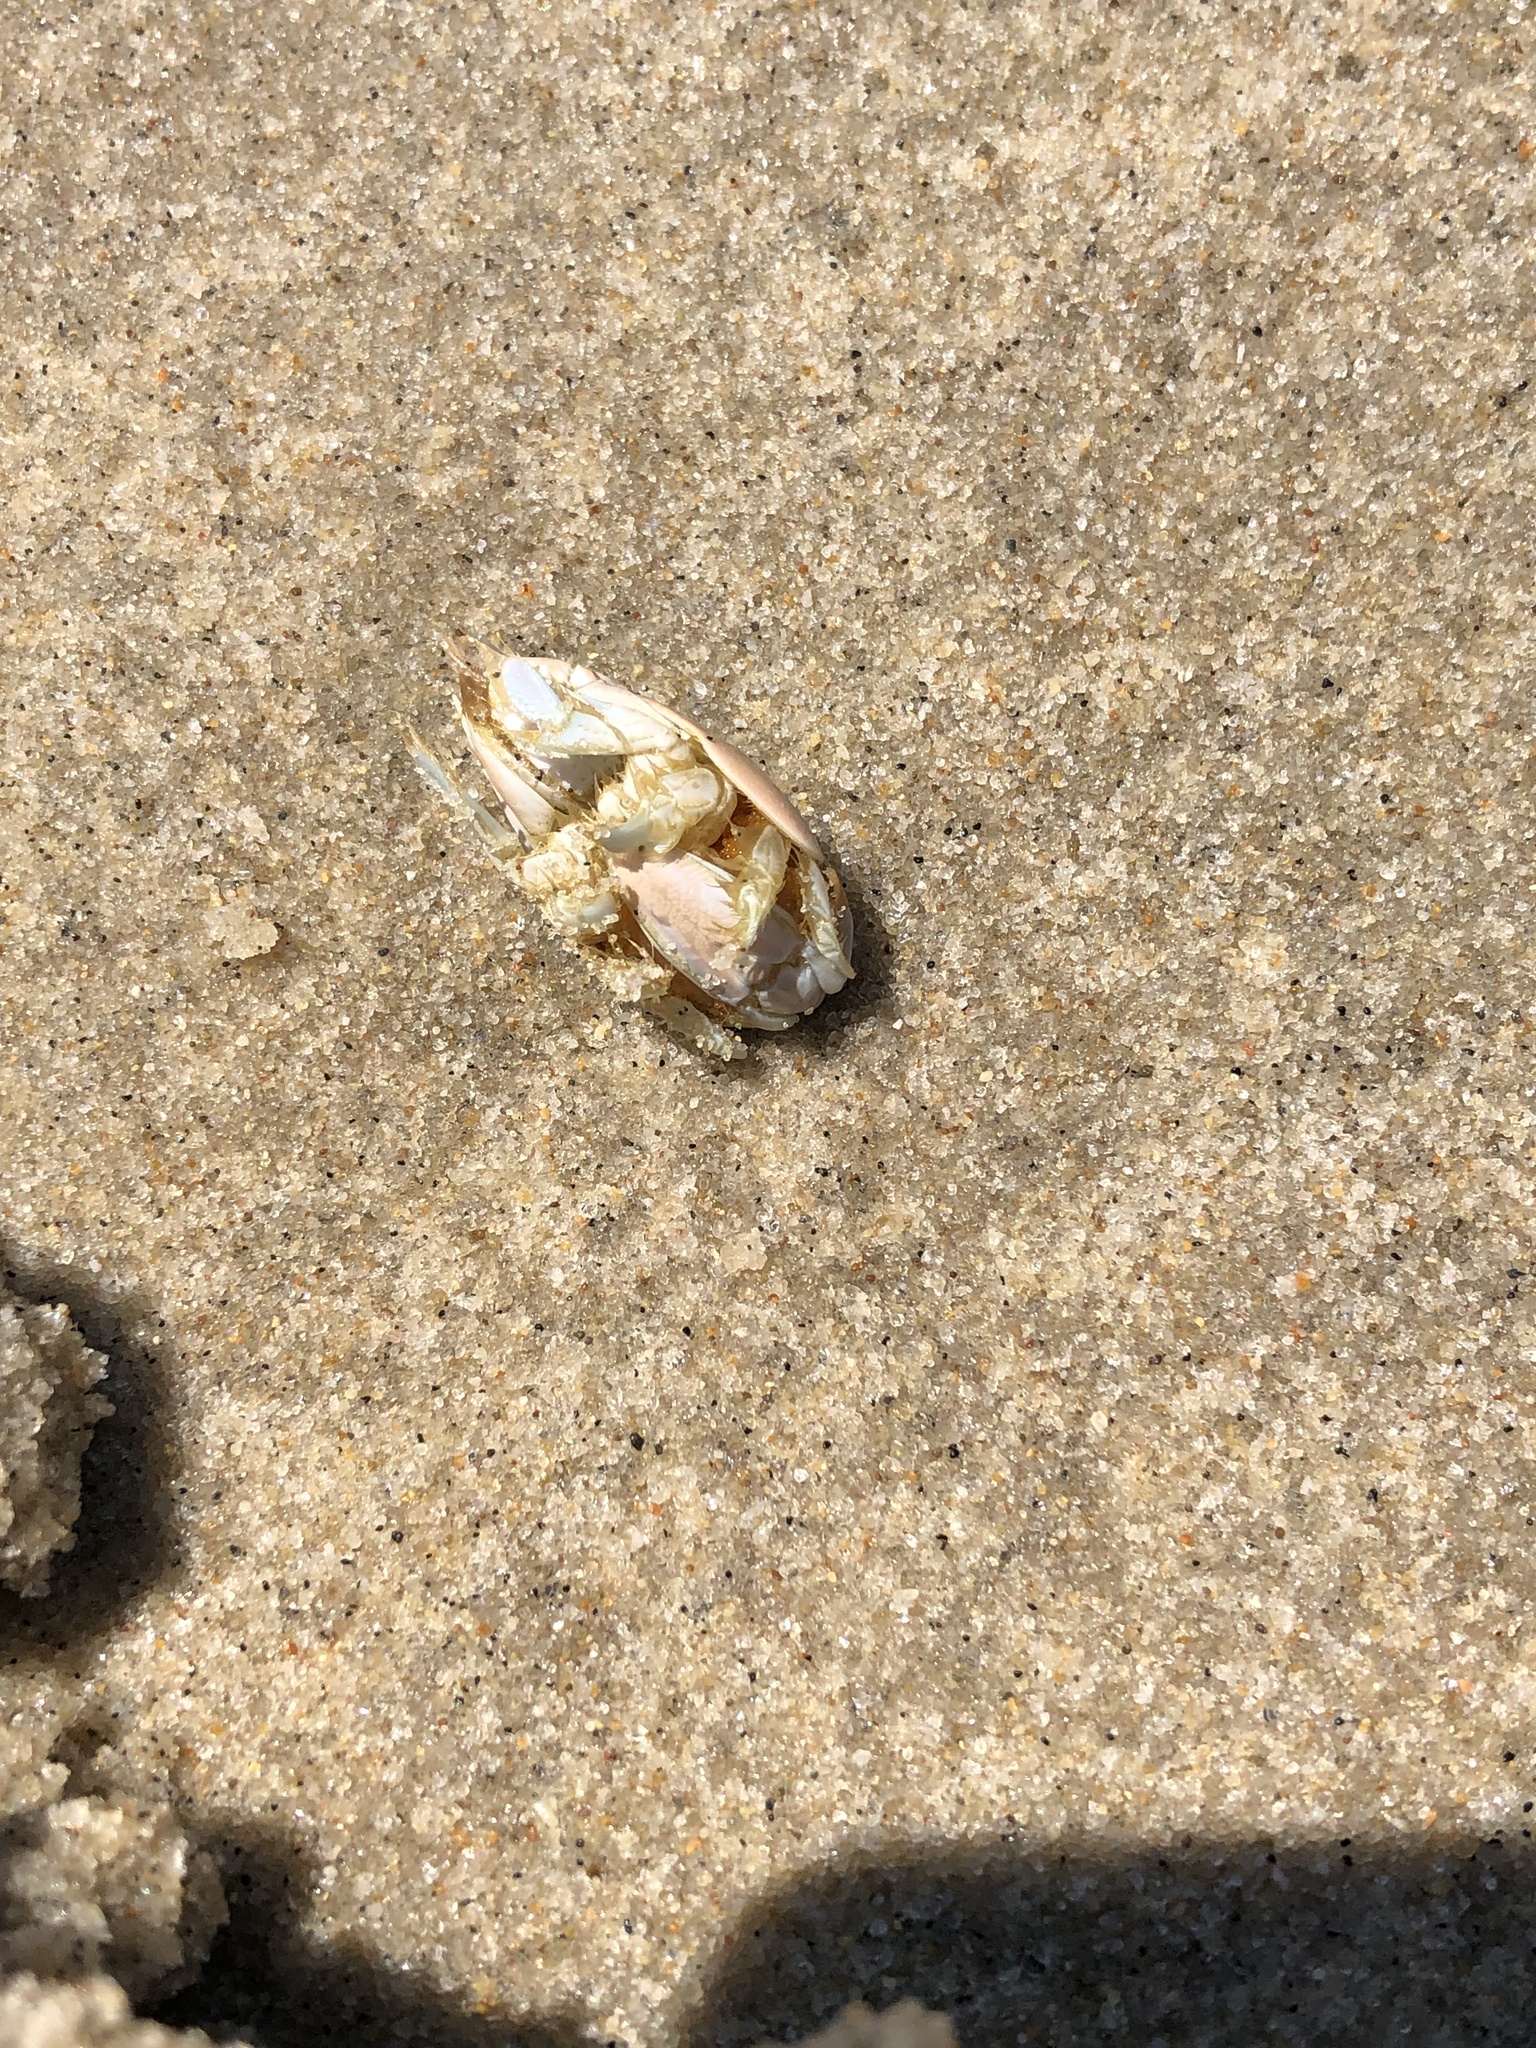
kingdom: Animalia
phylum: Arthropoda
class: Malacostraca
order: Decapoda
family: Hippidae
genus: Emerita
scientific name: Emerita talpoida
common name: Atlantic sand crab
